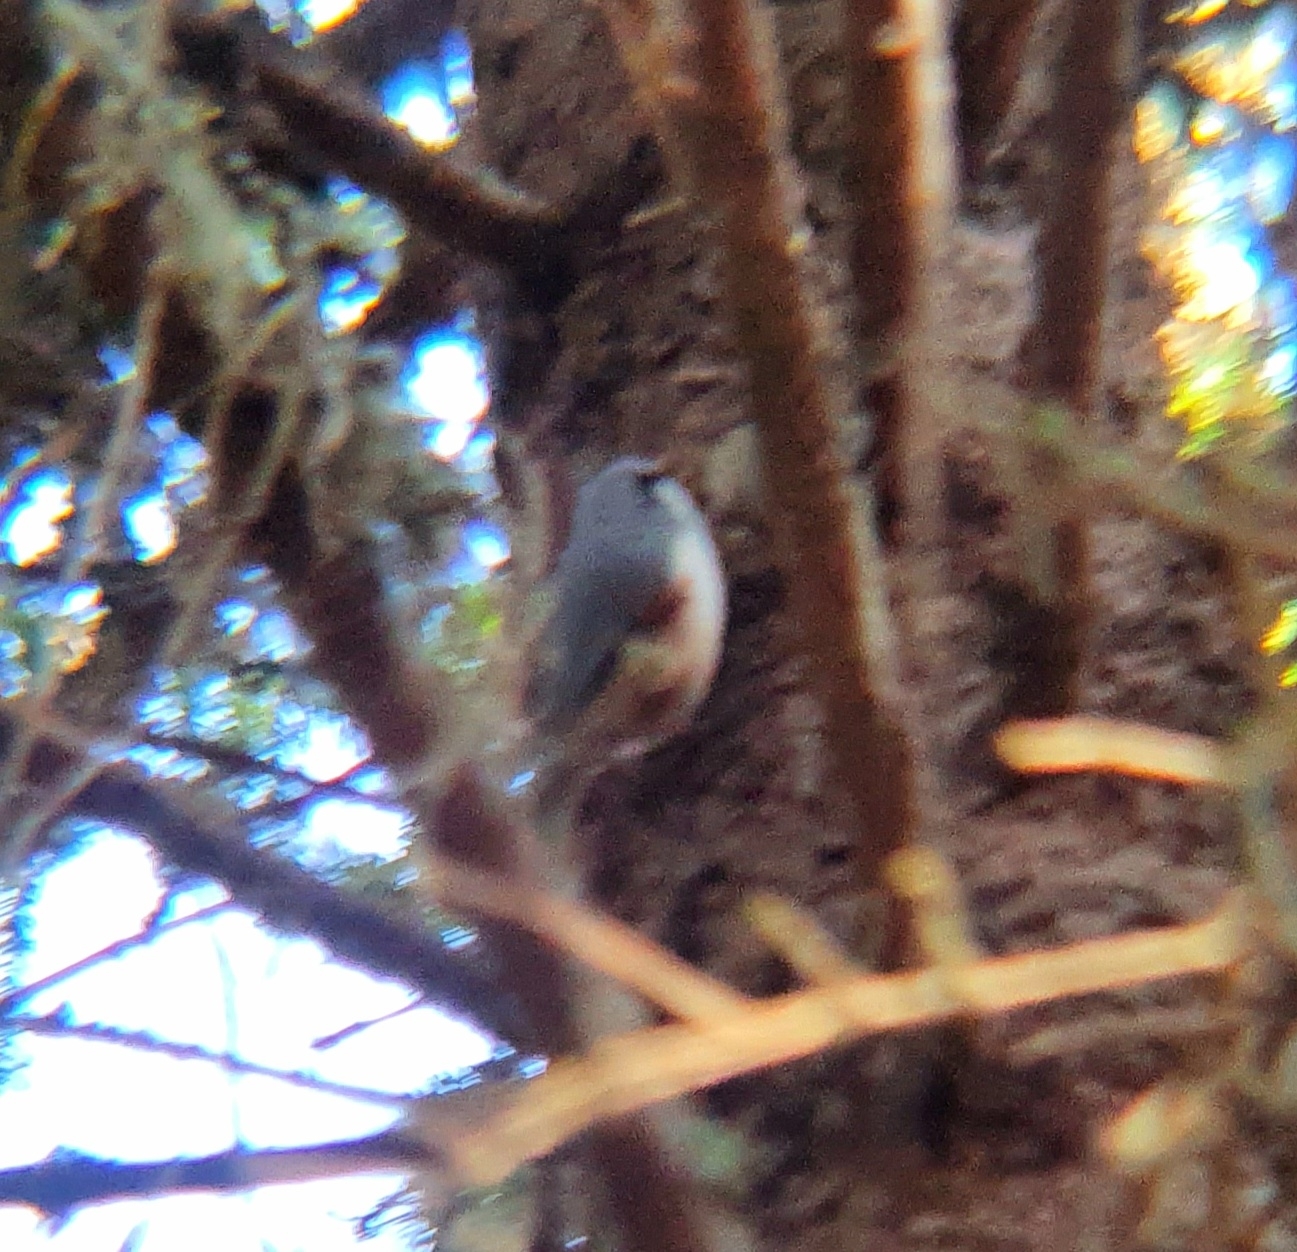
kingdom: Animalia
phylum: Chordata
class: Aves
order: Passeriformes
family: Sittidae
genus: Sitta
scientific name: Sitta europaea
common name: Eurasian nuthatch
